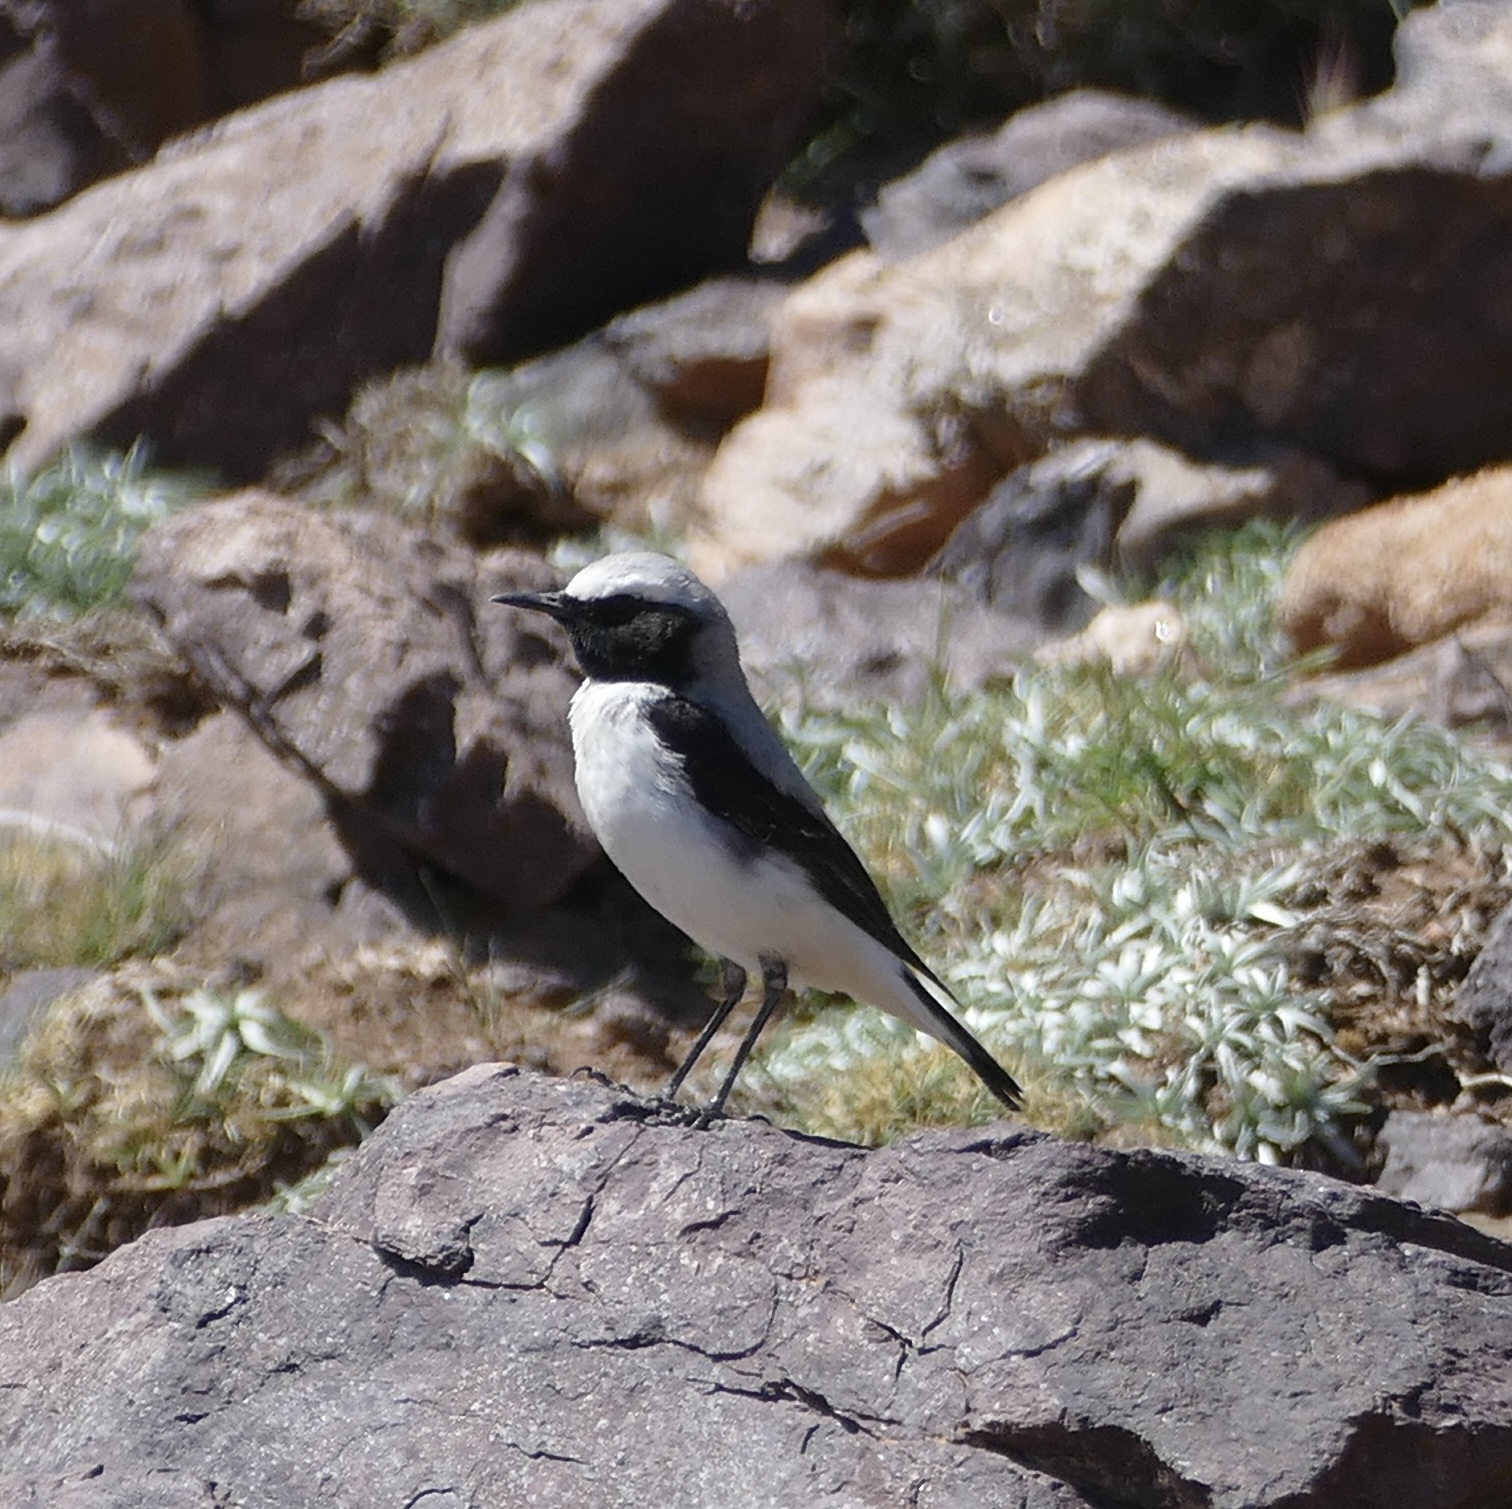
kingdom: Animalia
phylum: Chordata
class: Aves
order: Passeriformes
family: Muscicapidae
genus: Oenanthe
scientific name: Oenanthe oenanthe
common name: Northern wheatear
